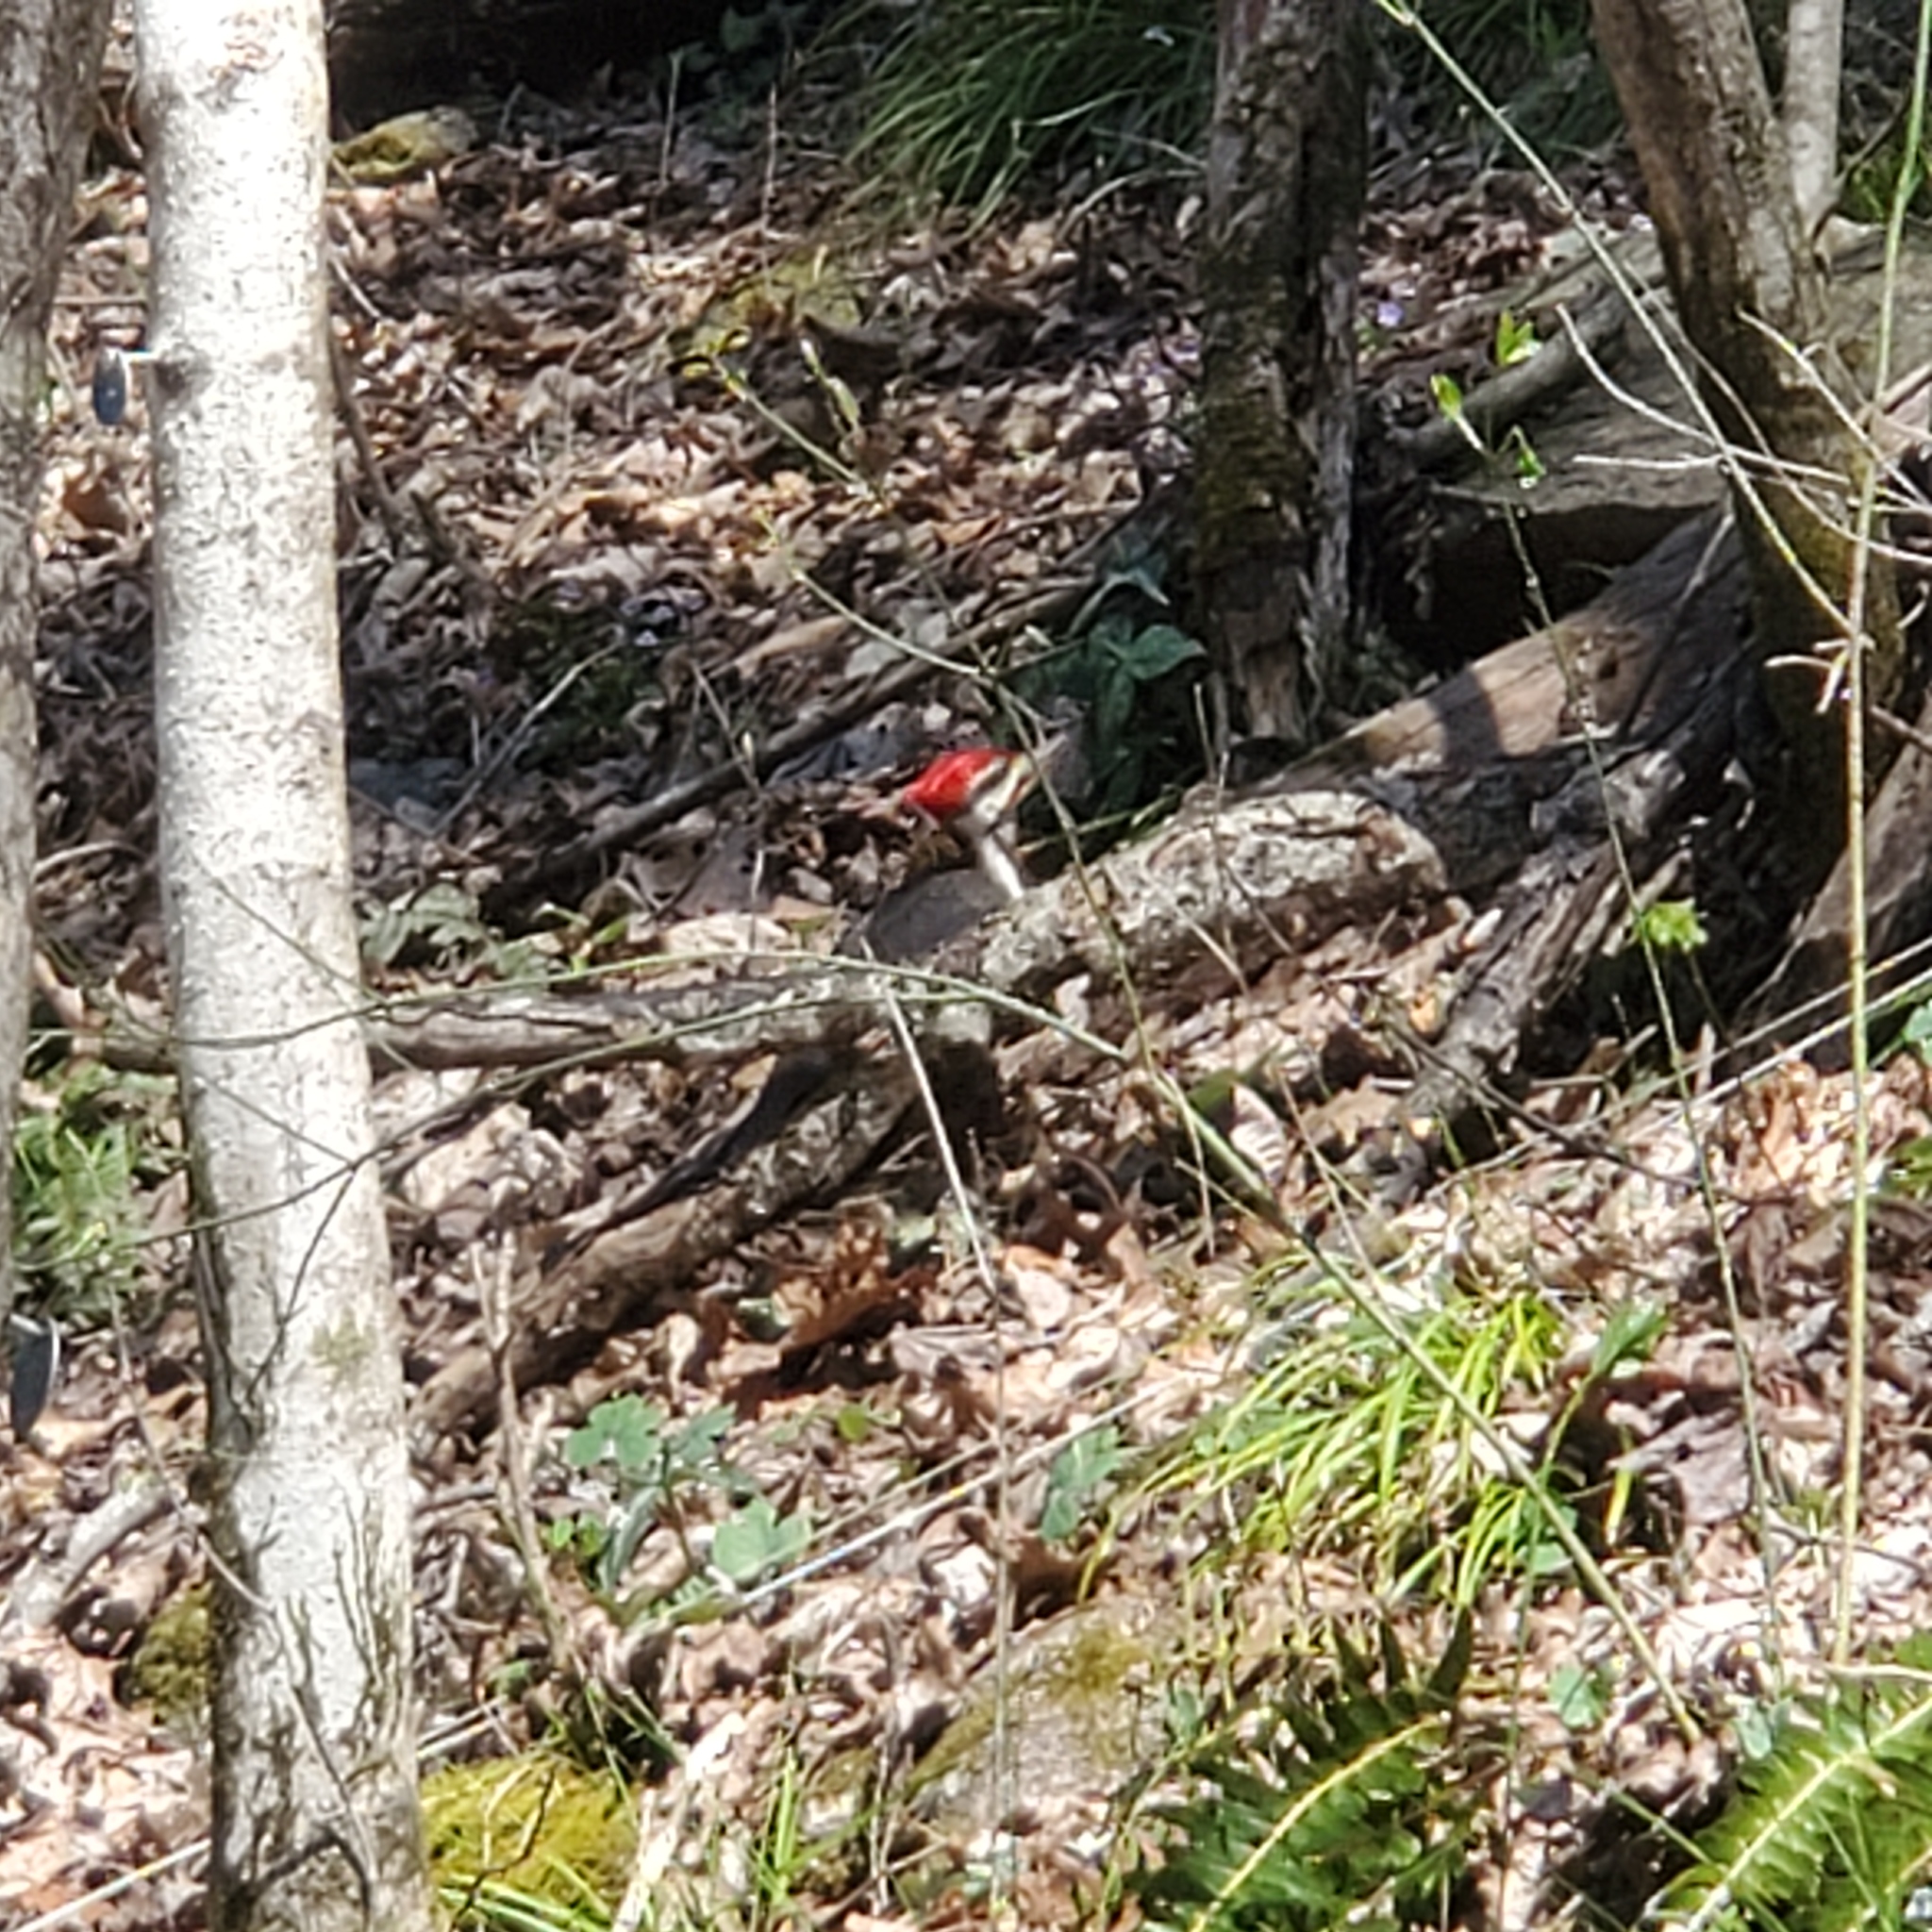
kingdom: Animalia
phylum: Chordata
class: Aves
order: Piciformes
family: Picidae
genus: Dryocopus
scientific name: Dryocopus pileatus
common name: Pileated woodpecker
